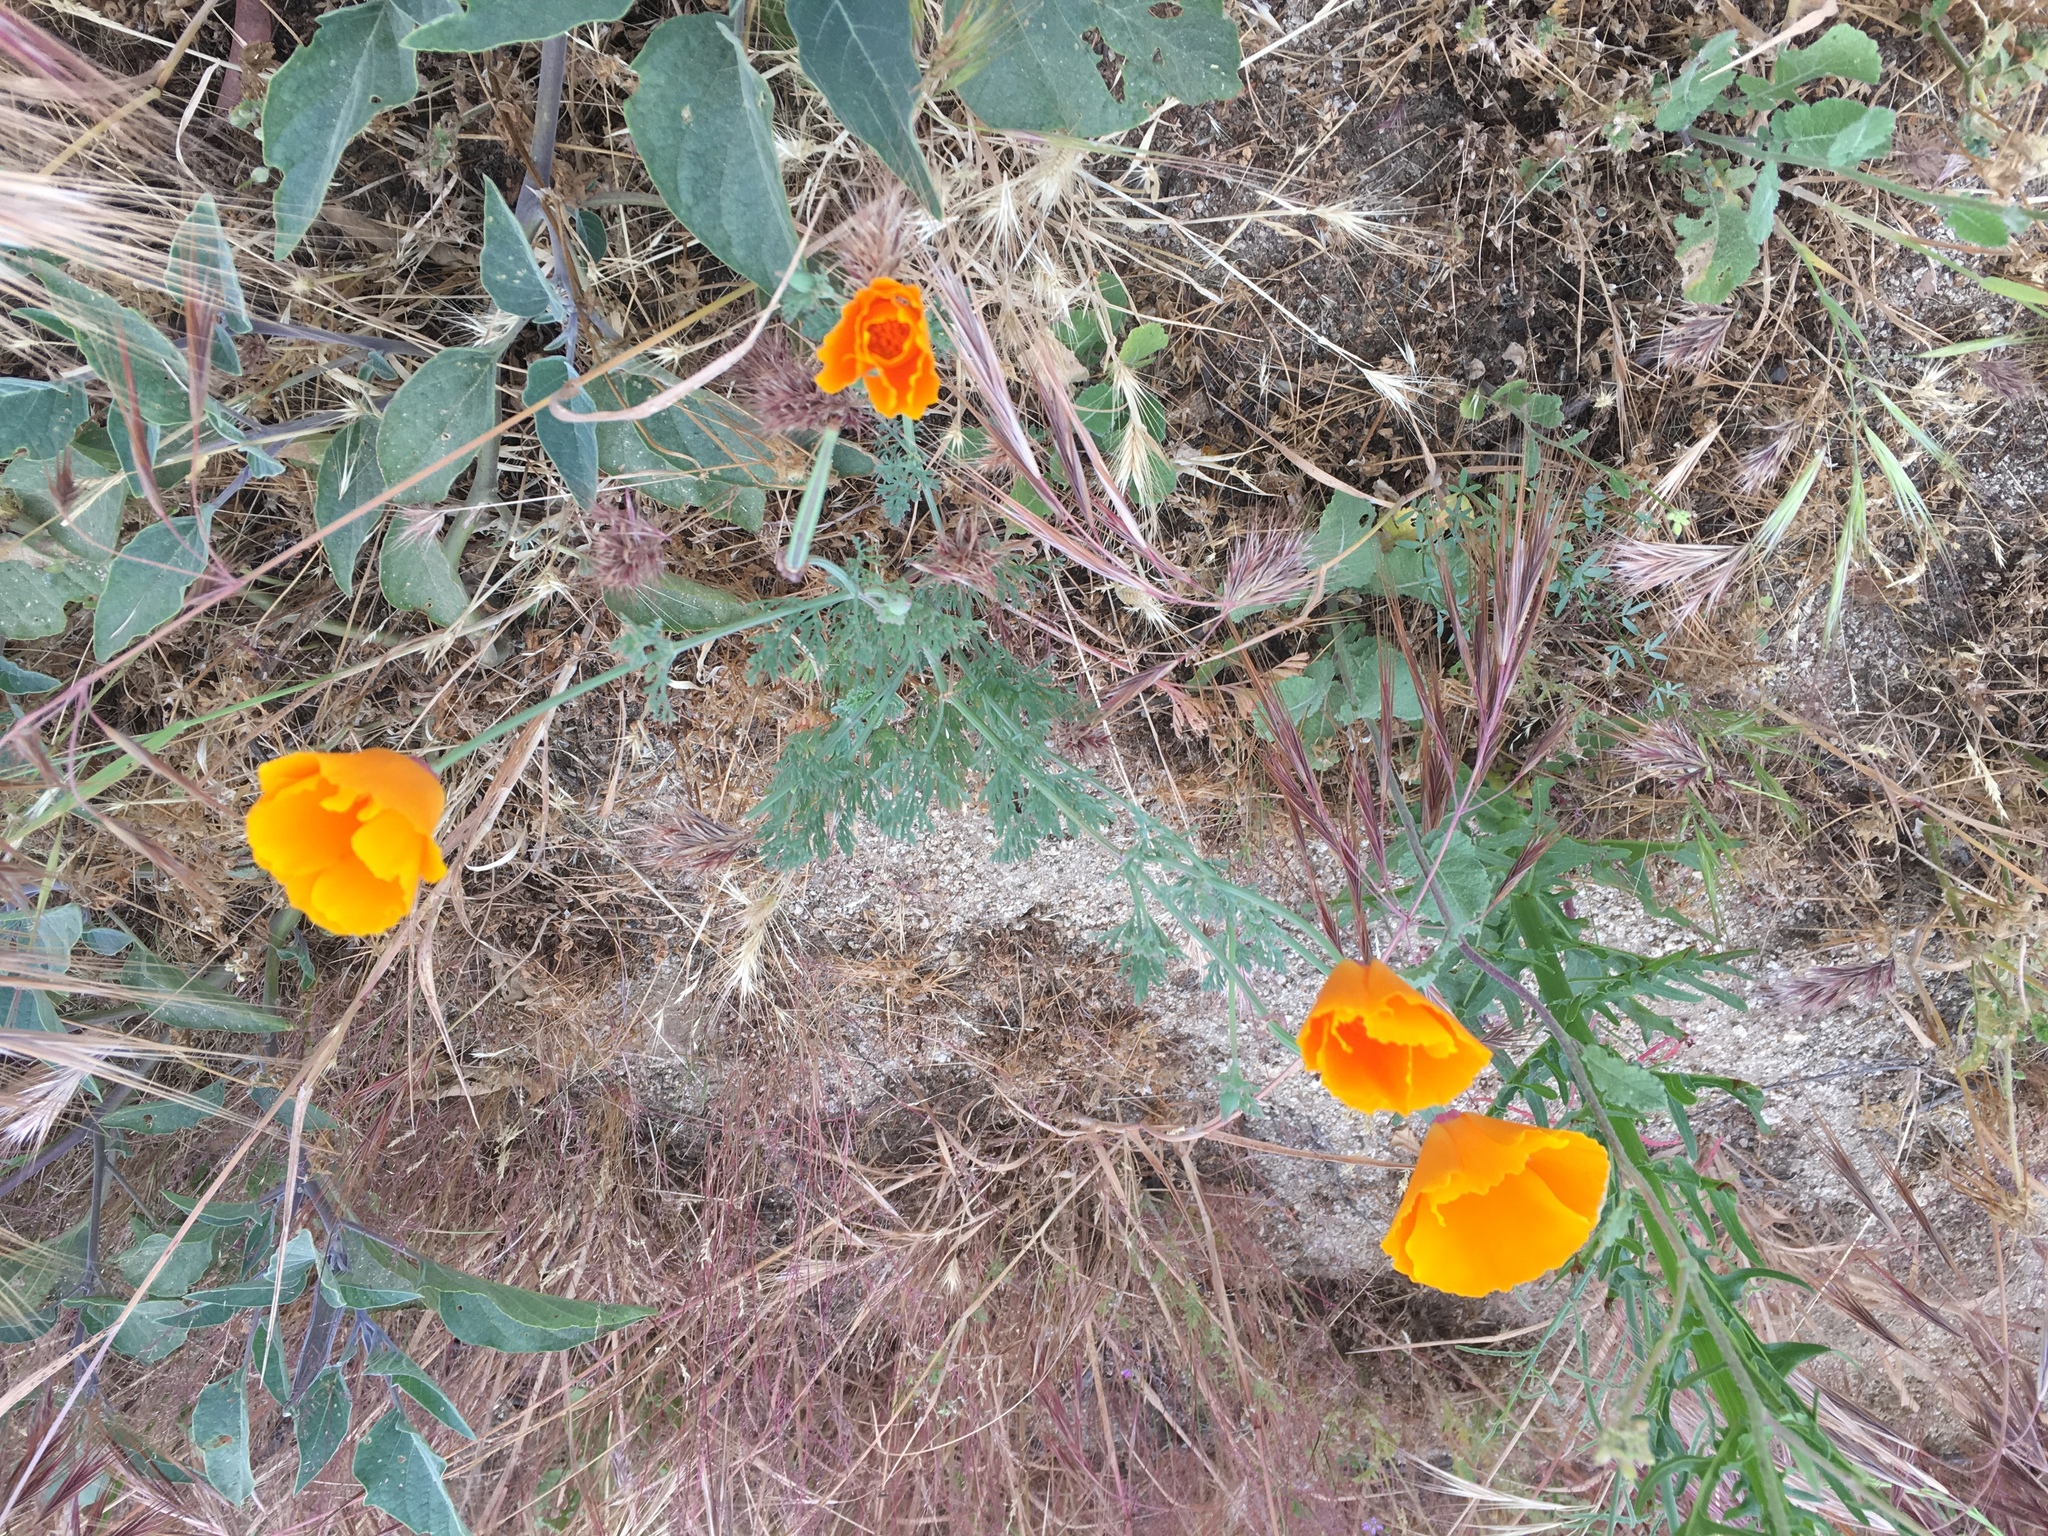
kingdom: Plantae
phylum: Tracheophyta
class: Magnoliopsida
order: Ranunculales
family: Papaveraceae
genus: Eschscholzia
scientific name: Eschscholzia californica
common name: California poppy
